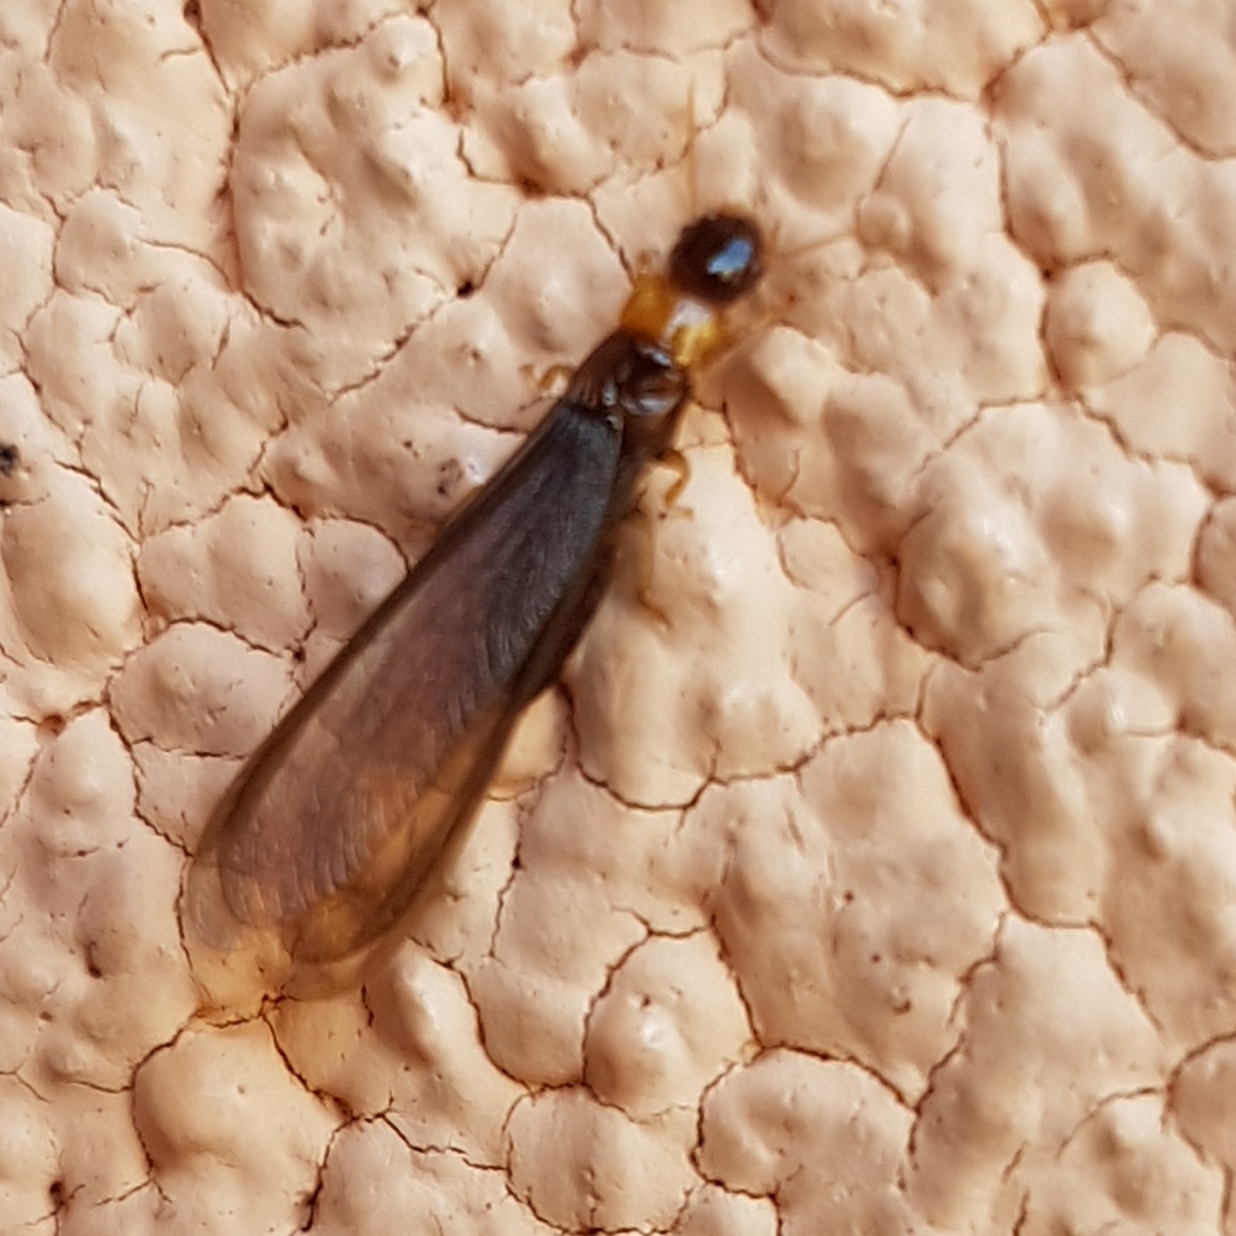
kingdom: Animalia
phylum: Arthropoda
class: Insecta
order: Blattodea
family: Kalotermitidae
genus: Kalotermes
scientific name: Kalotermes flavicollis
